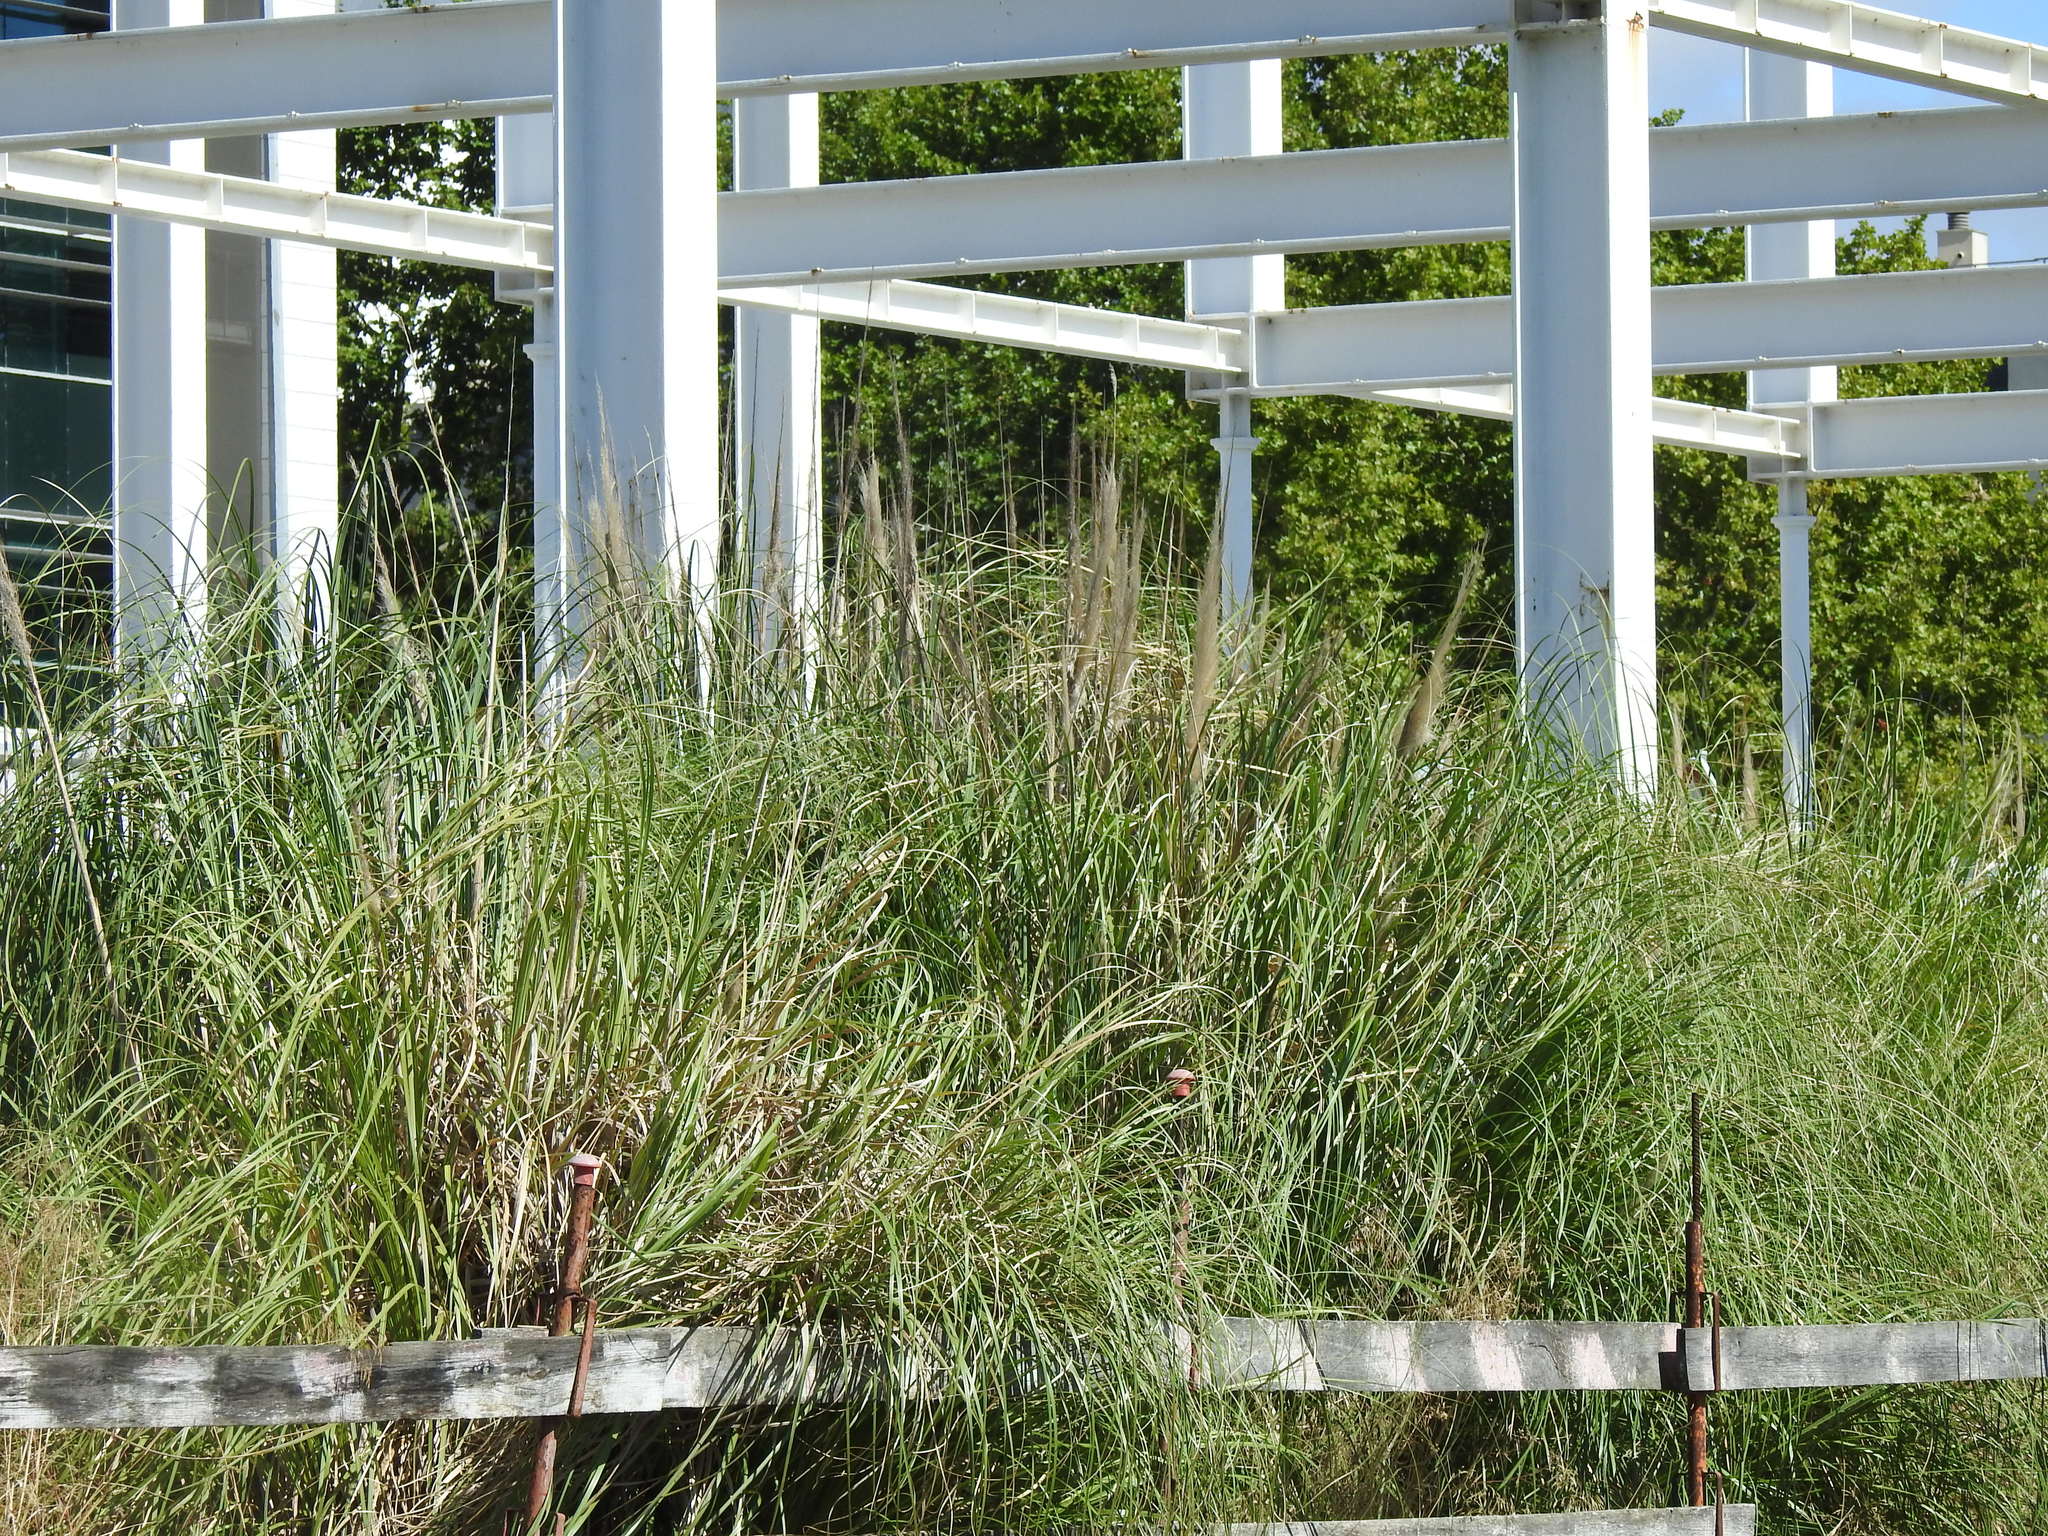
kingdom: Plantae
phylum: Tracheophyta
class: Liliopsida
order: Poales
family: Poaceae
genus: Cortaderia
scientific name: Cortaderia selloana
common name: Uruguayan pampas grass
